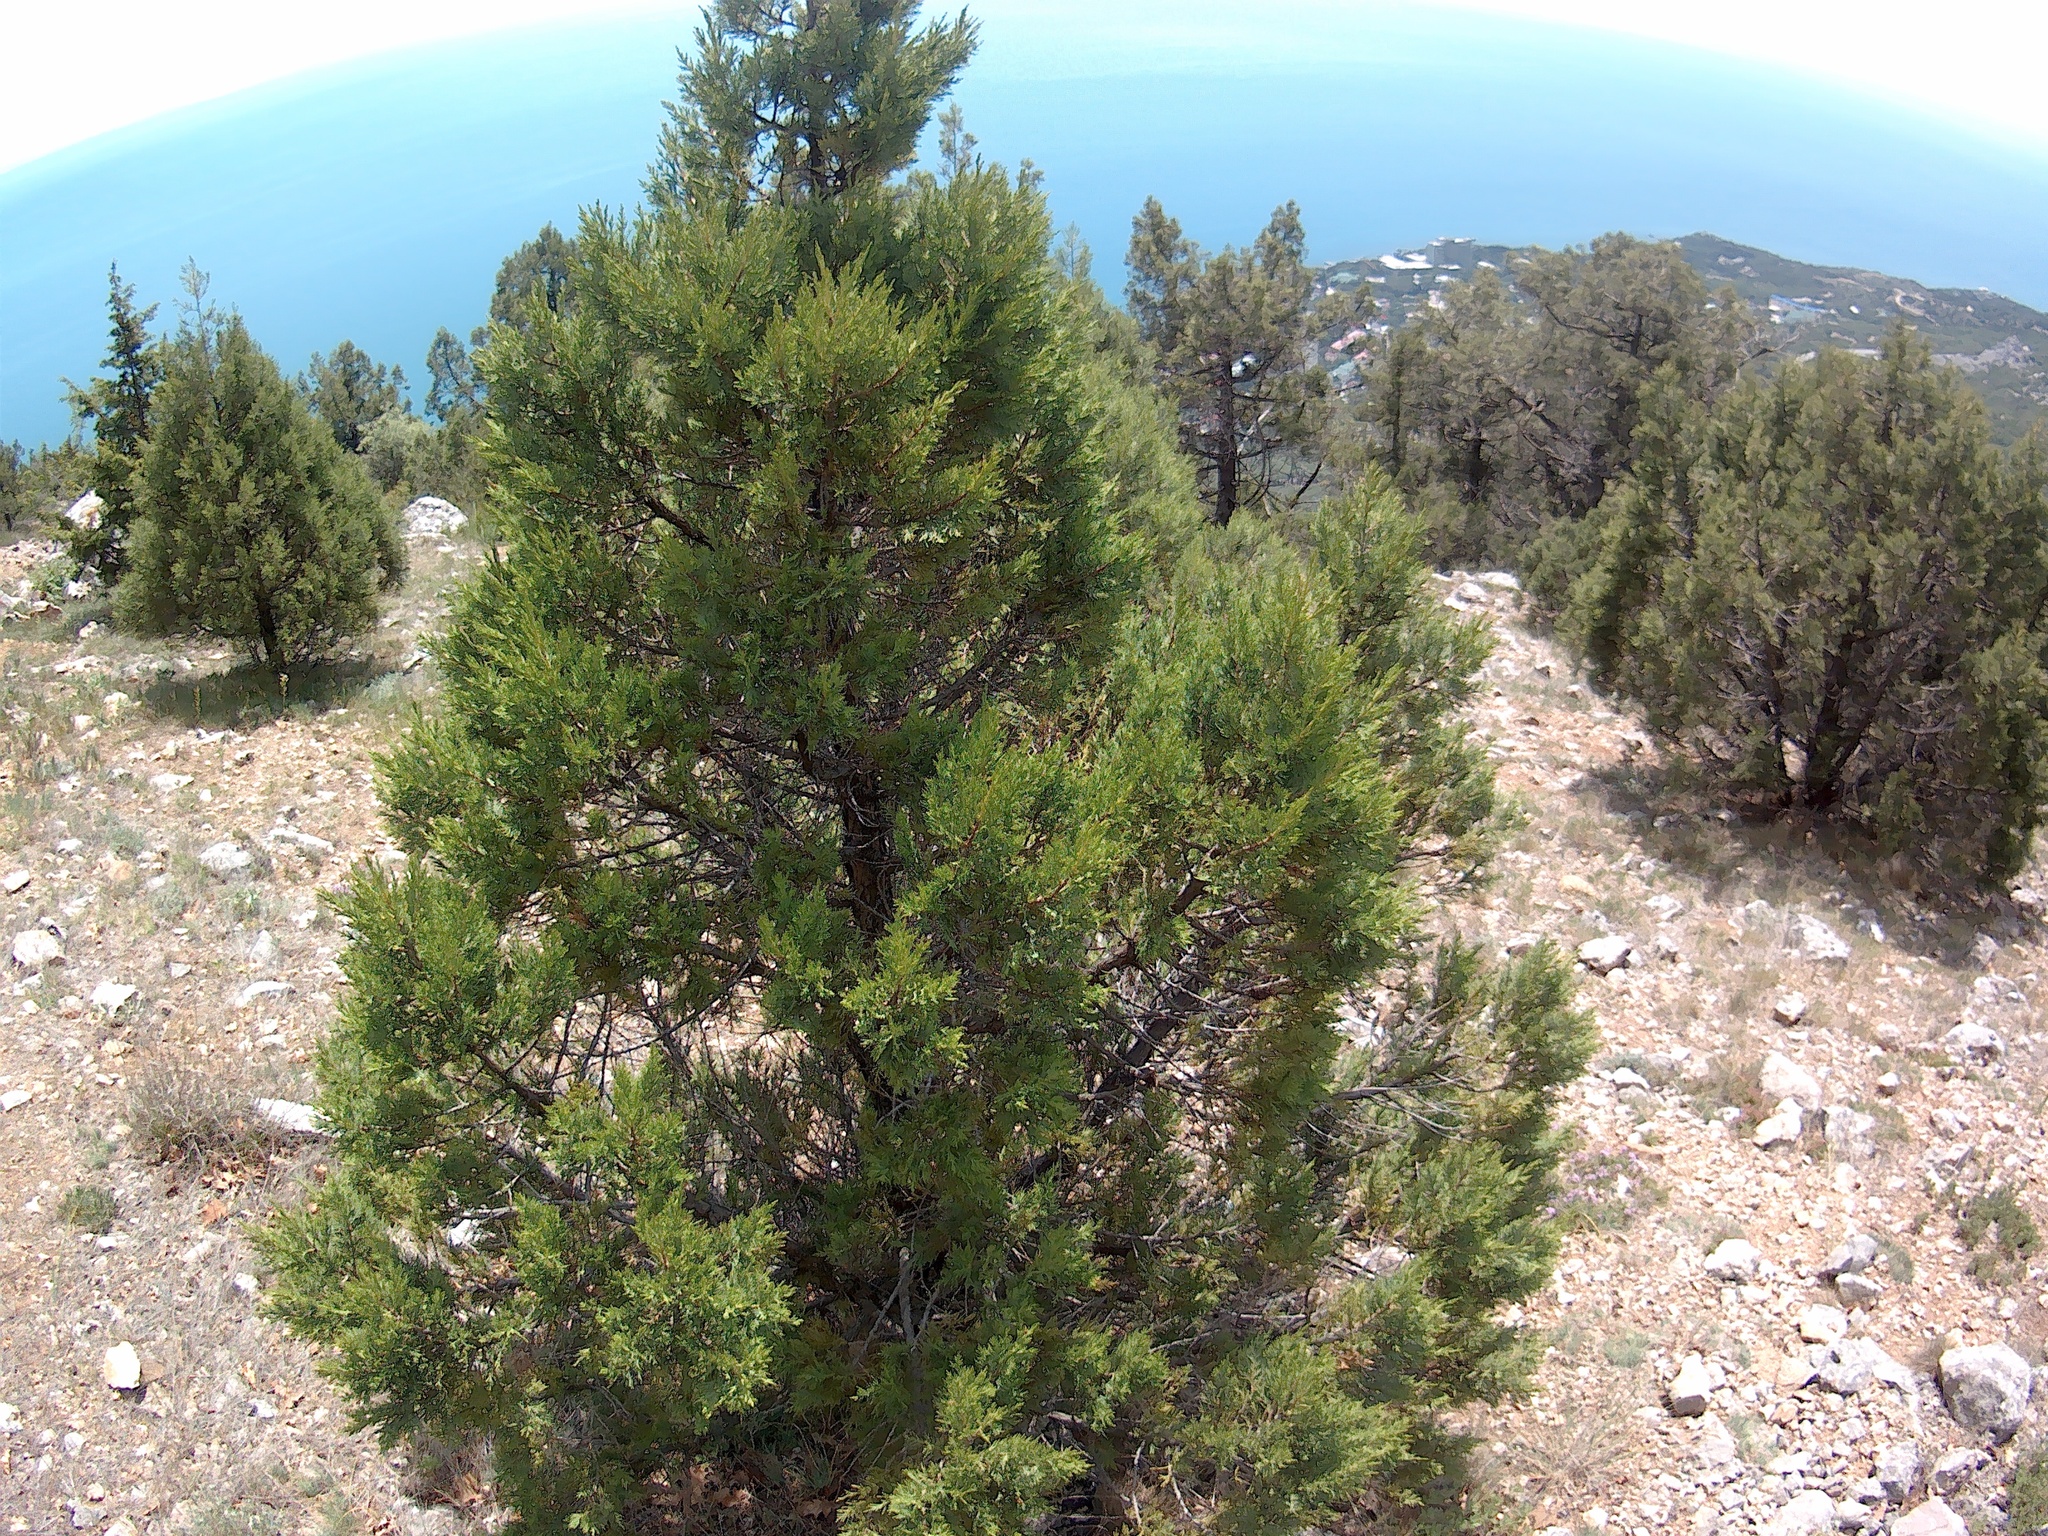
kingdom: Plantae
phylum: Tracheophyta
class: Pinopsida
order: Pinales
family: Cupressaceae
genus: Juniperus
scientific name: Juniperus excelsa
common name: Crimean juniper
